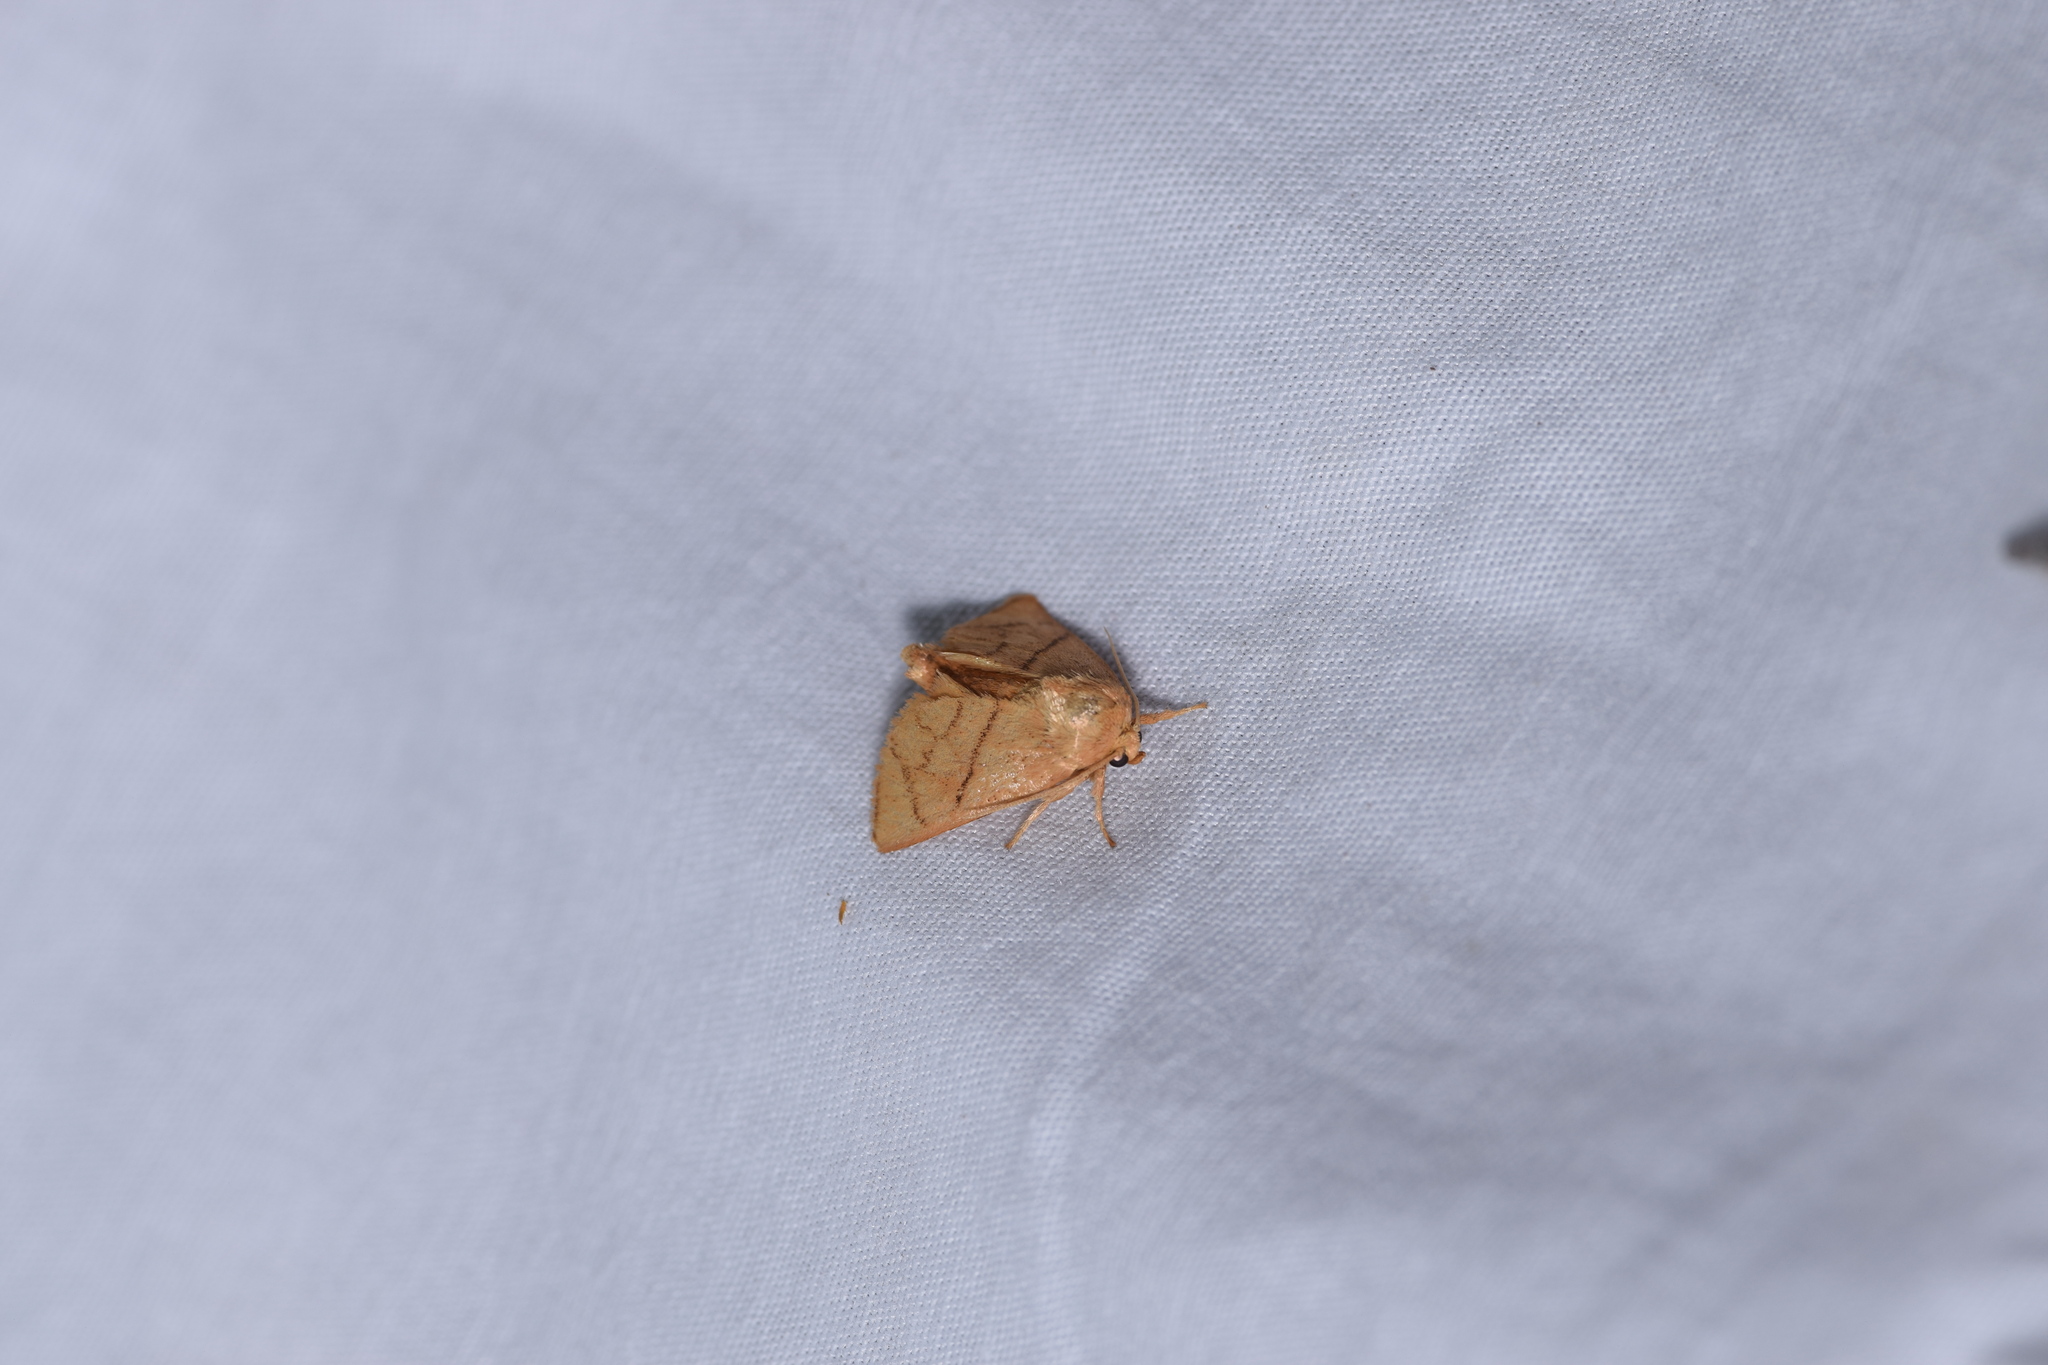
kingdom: Animalia
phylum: Arthropoda
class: Insecta
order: Lepidoptera
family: Limacodidae
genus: Apoda
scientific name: Apoda y-inversa
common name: Yellow-collared slug moth
